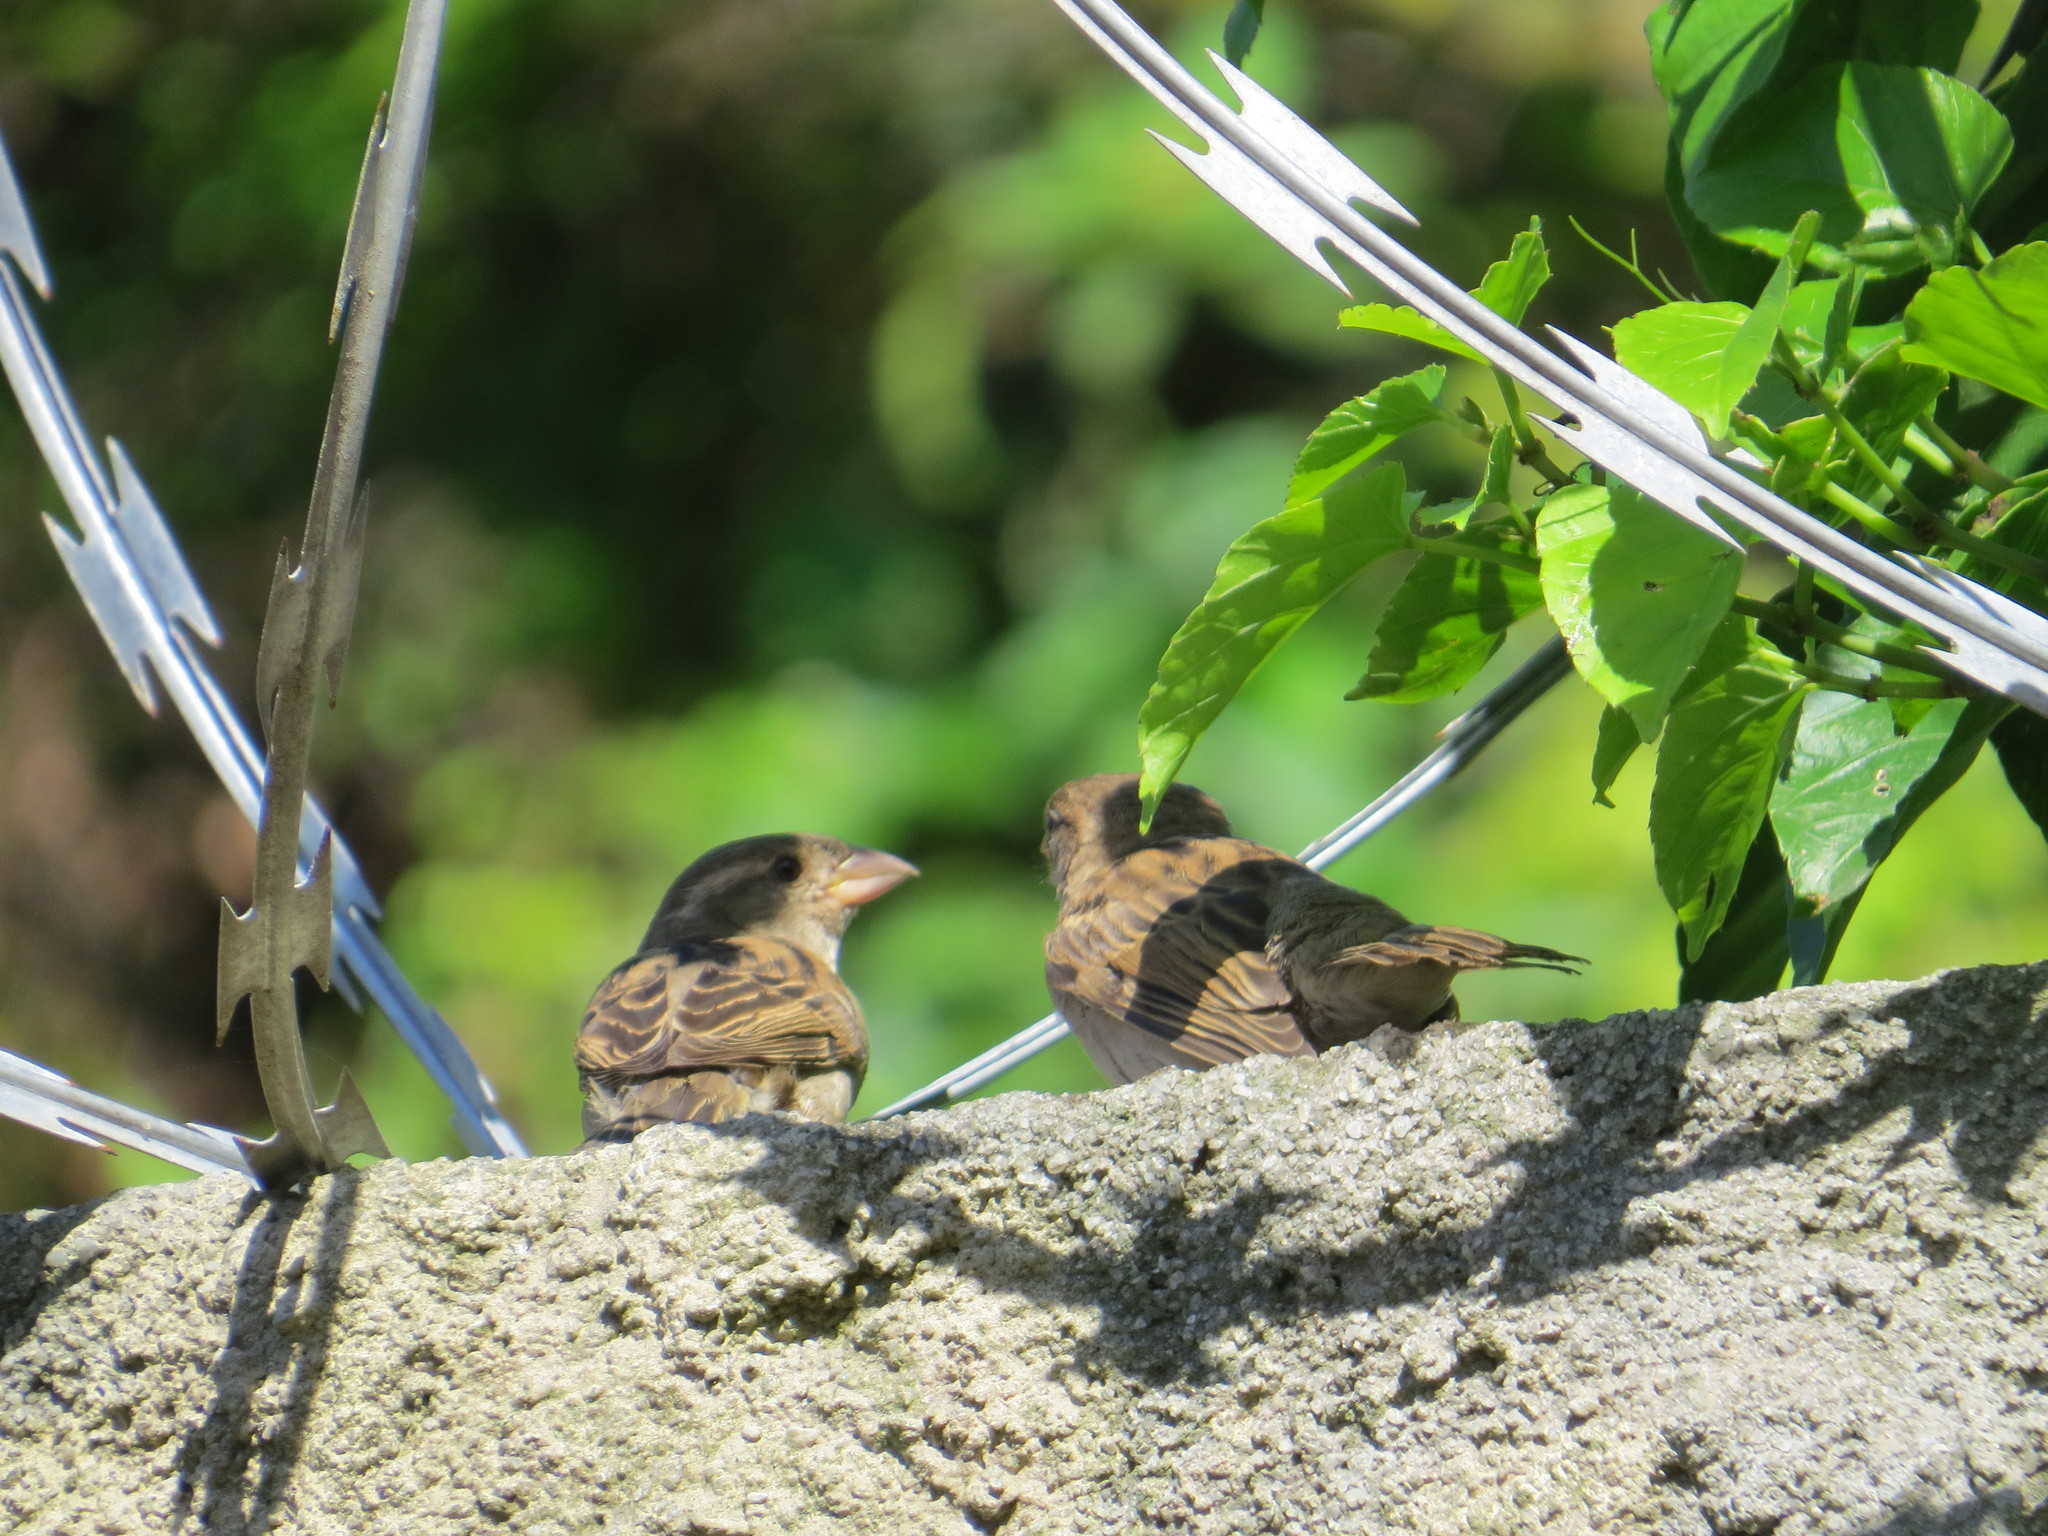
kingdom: Animalia
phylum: Chordata
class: Aves
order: Passeriformes
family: Passeridae
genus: Passer
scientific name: Passer domesticus
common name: House sparrow
